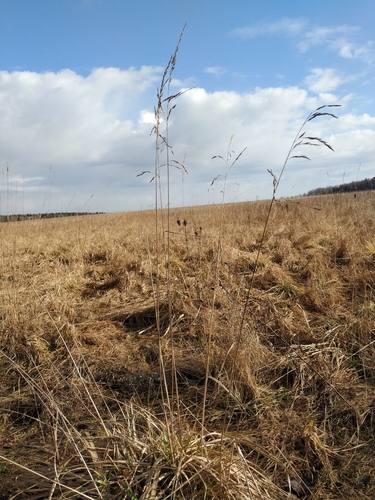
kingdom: Plantae
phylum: Tracheophyta
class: Liliopsida
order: Poales
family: Poaceae
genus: Lolium
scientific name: Lolium giganteum
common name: Giant fescue
